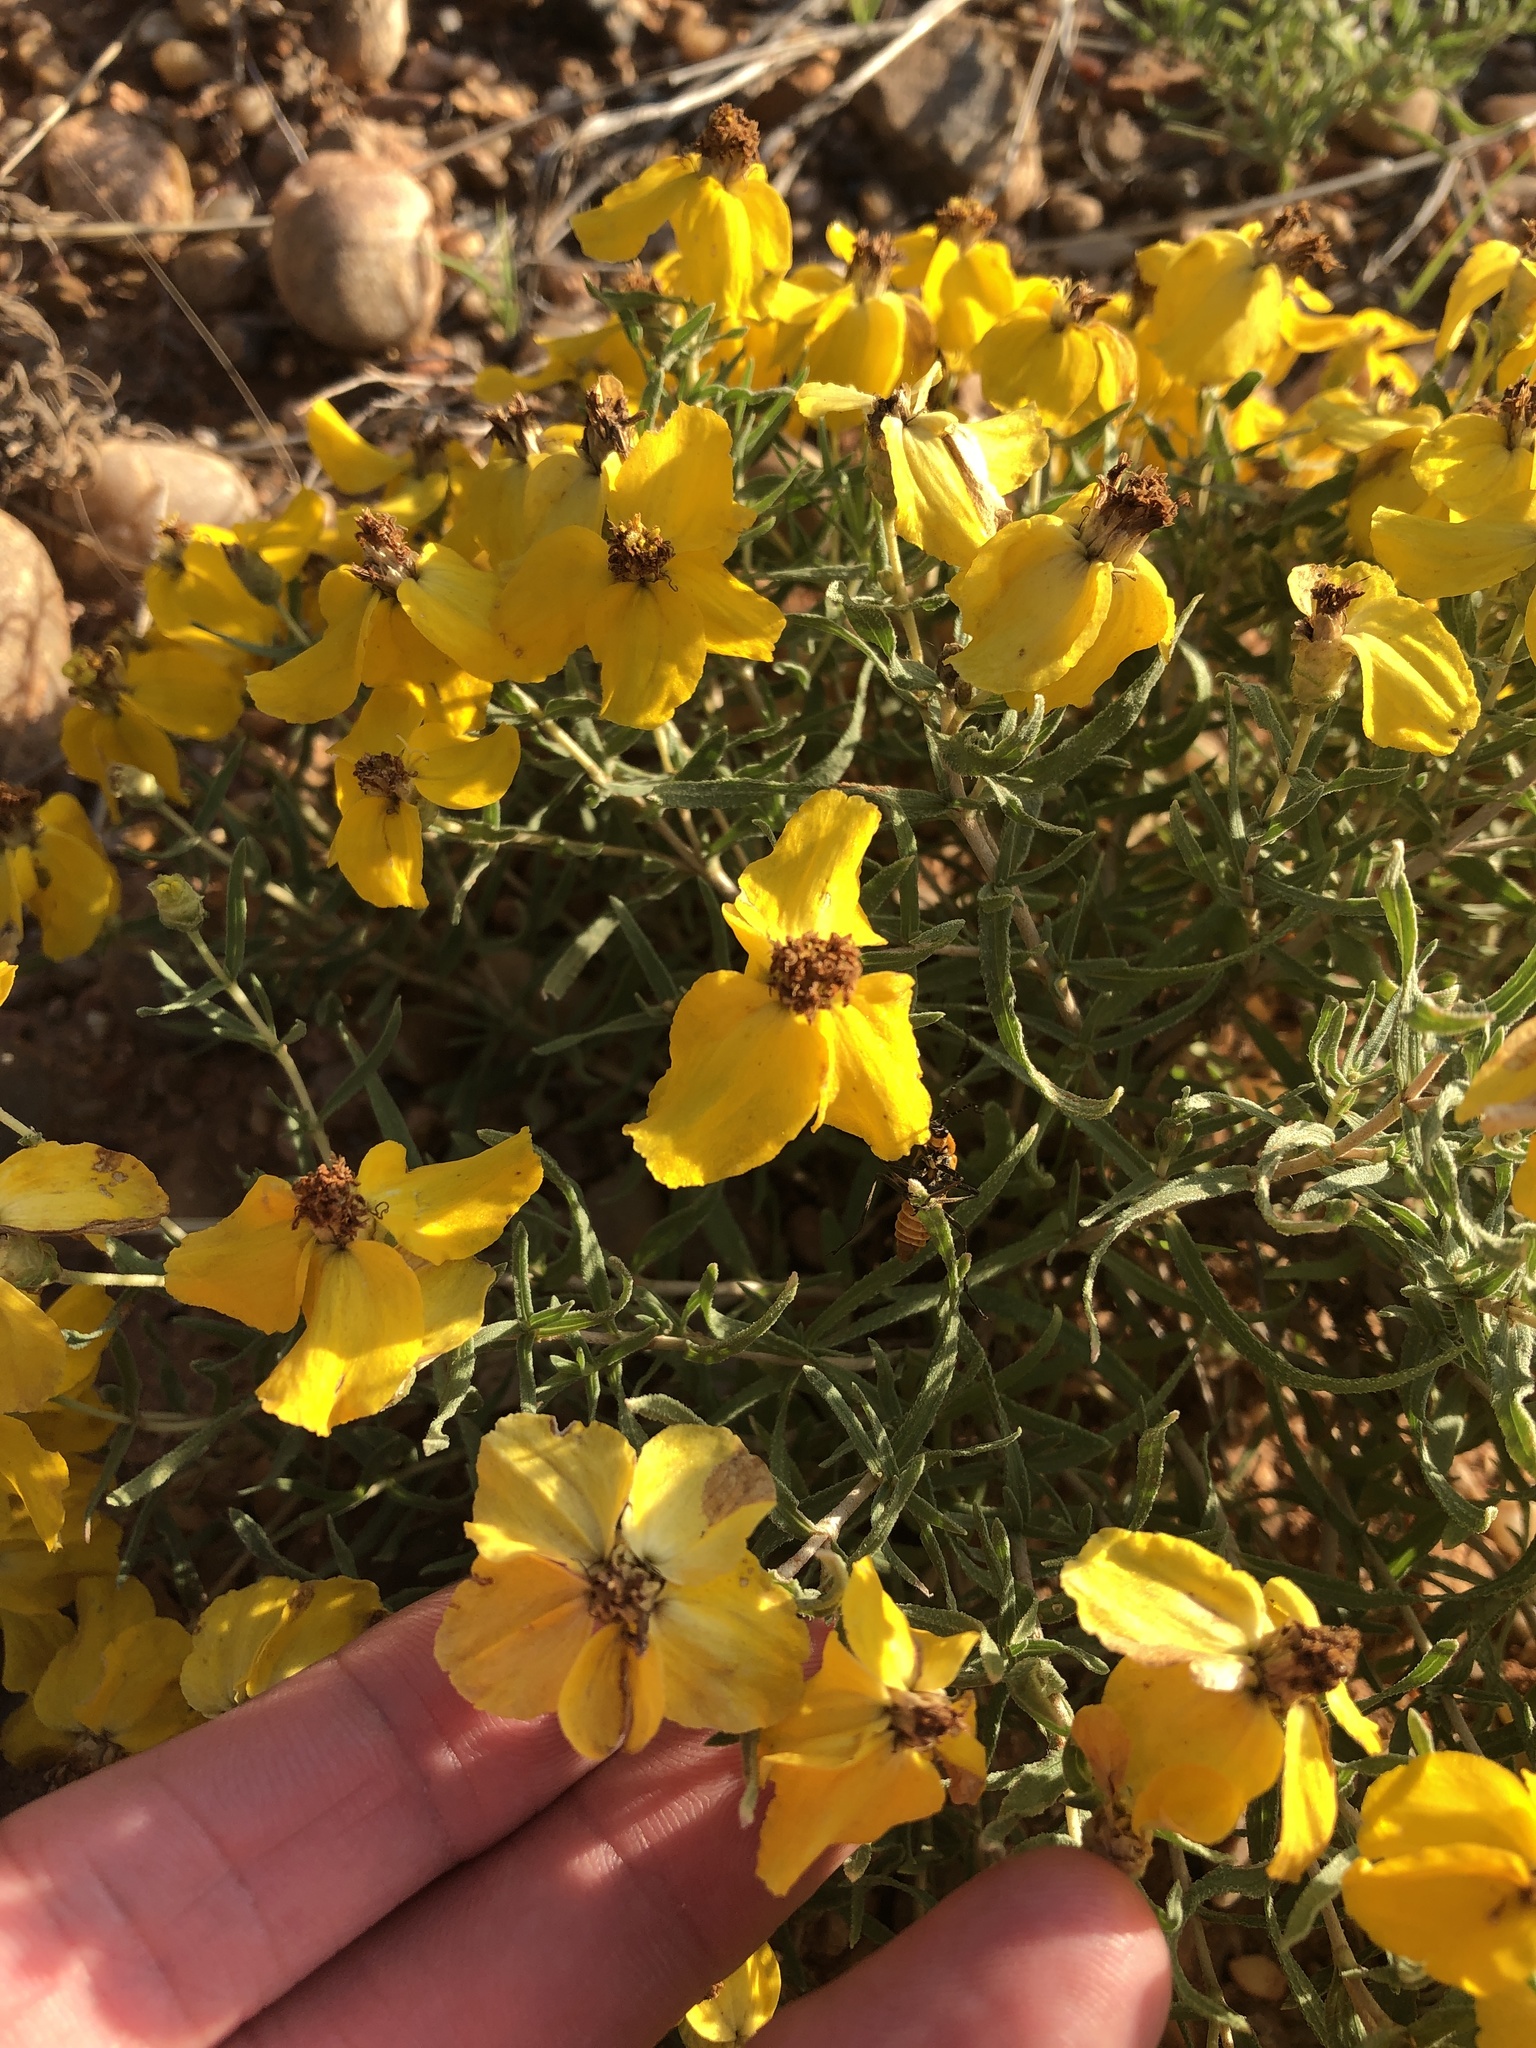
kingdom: Plantae
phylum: Tracheophyta
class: Magnoliopsida
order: Asterales
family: Asteraceae
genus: Zinnia
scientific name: Zinnia grandiflora
